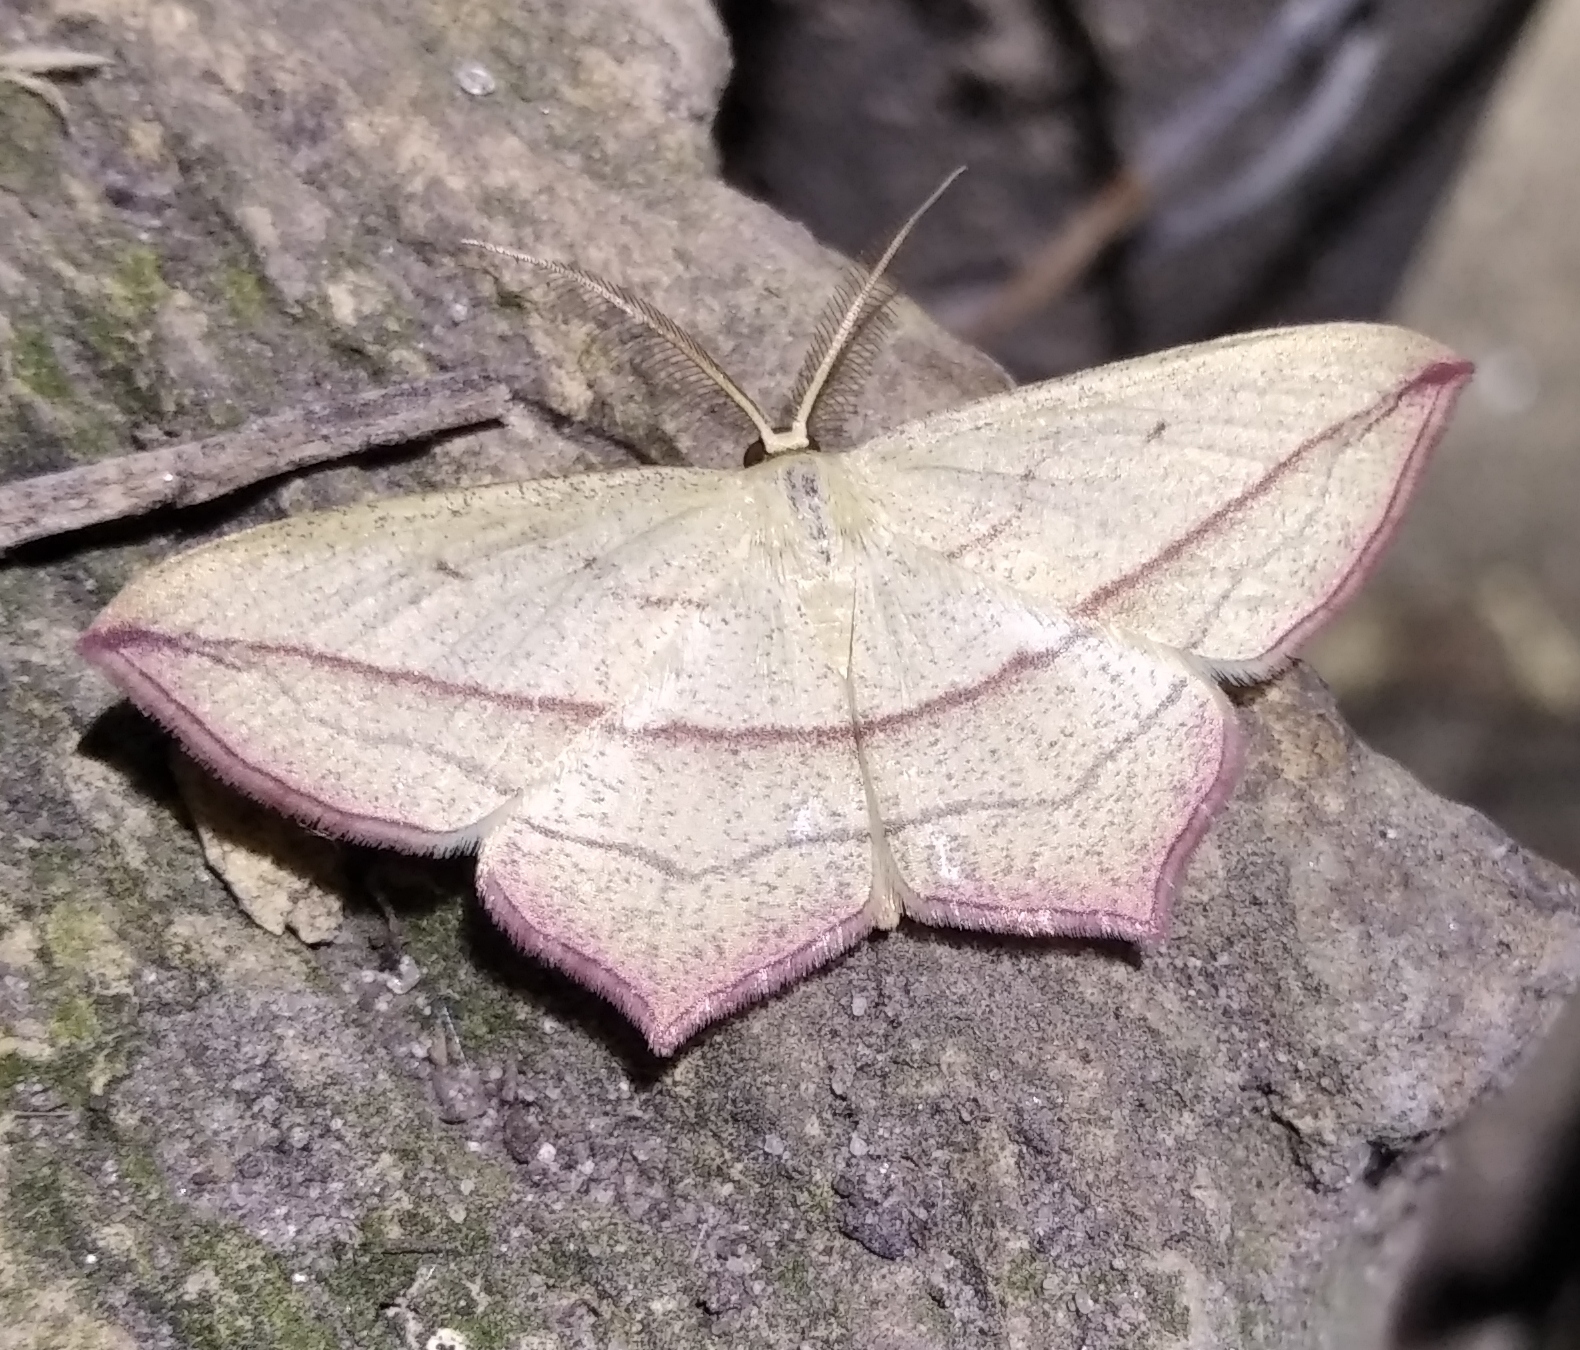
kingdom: Animalia
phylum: Arthropoda
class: Insecta
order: Lepidoptera
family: Geometridae
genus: Timandra
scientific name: Timandra comae
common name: Blood-vein
